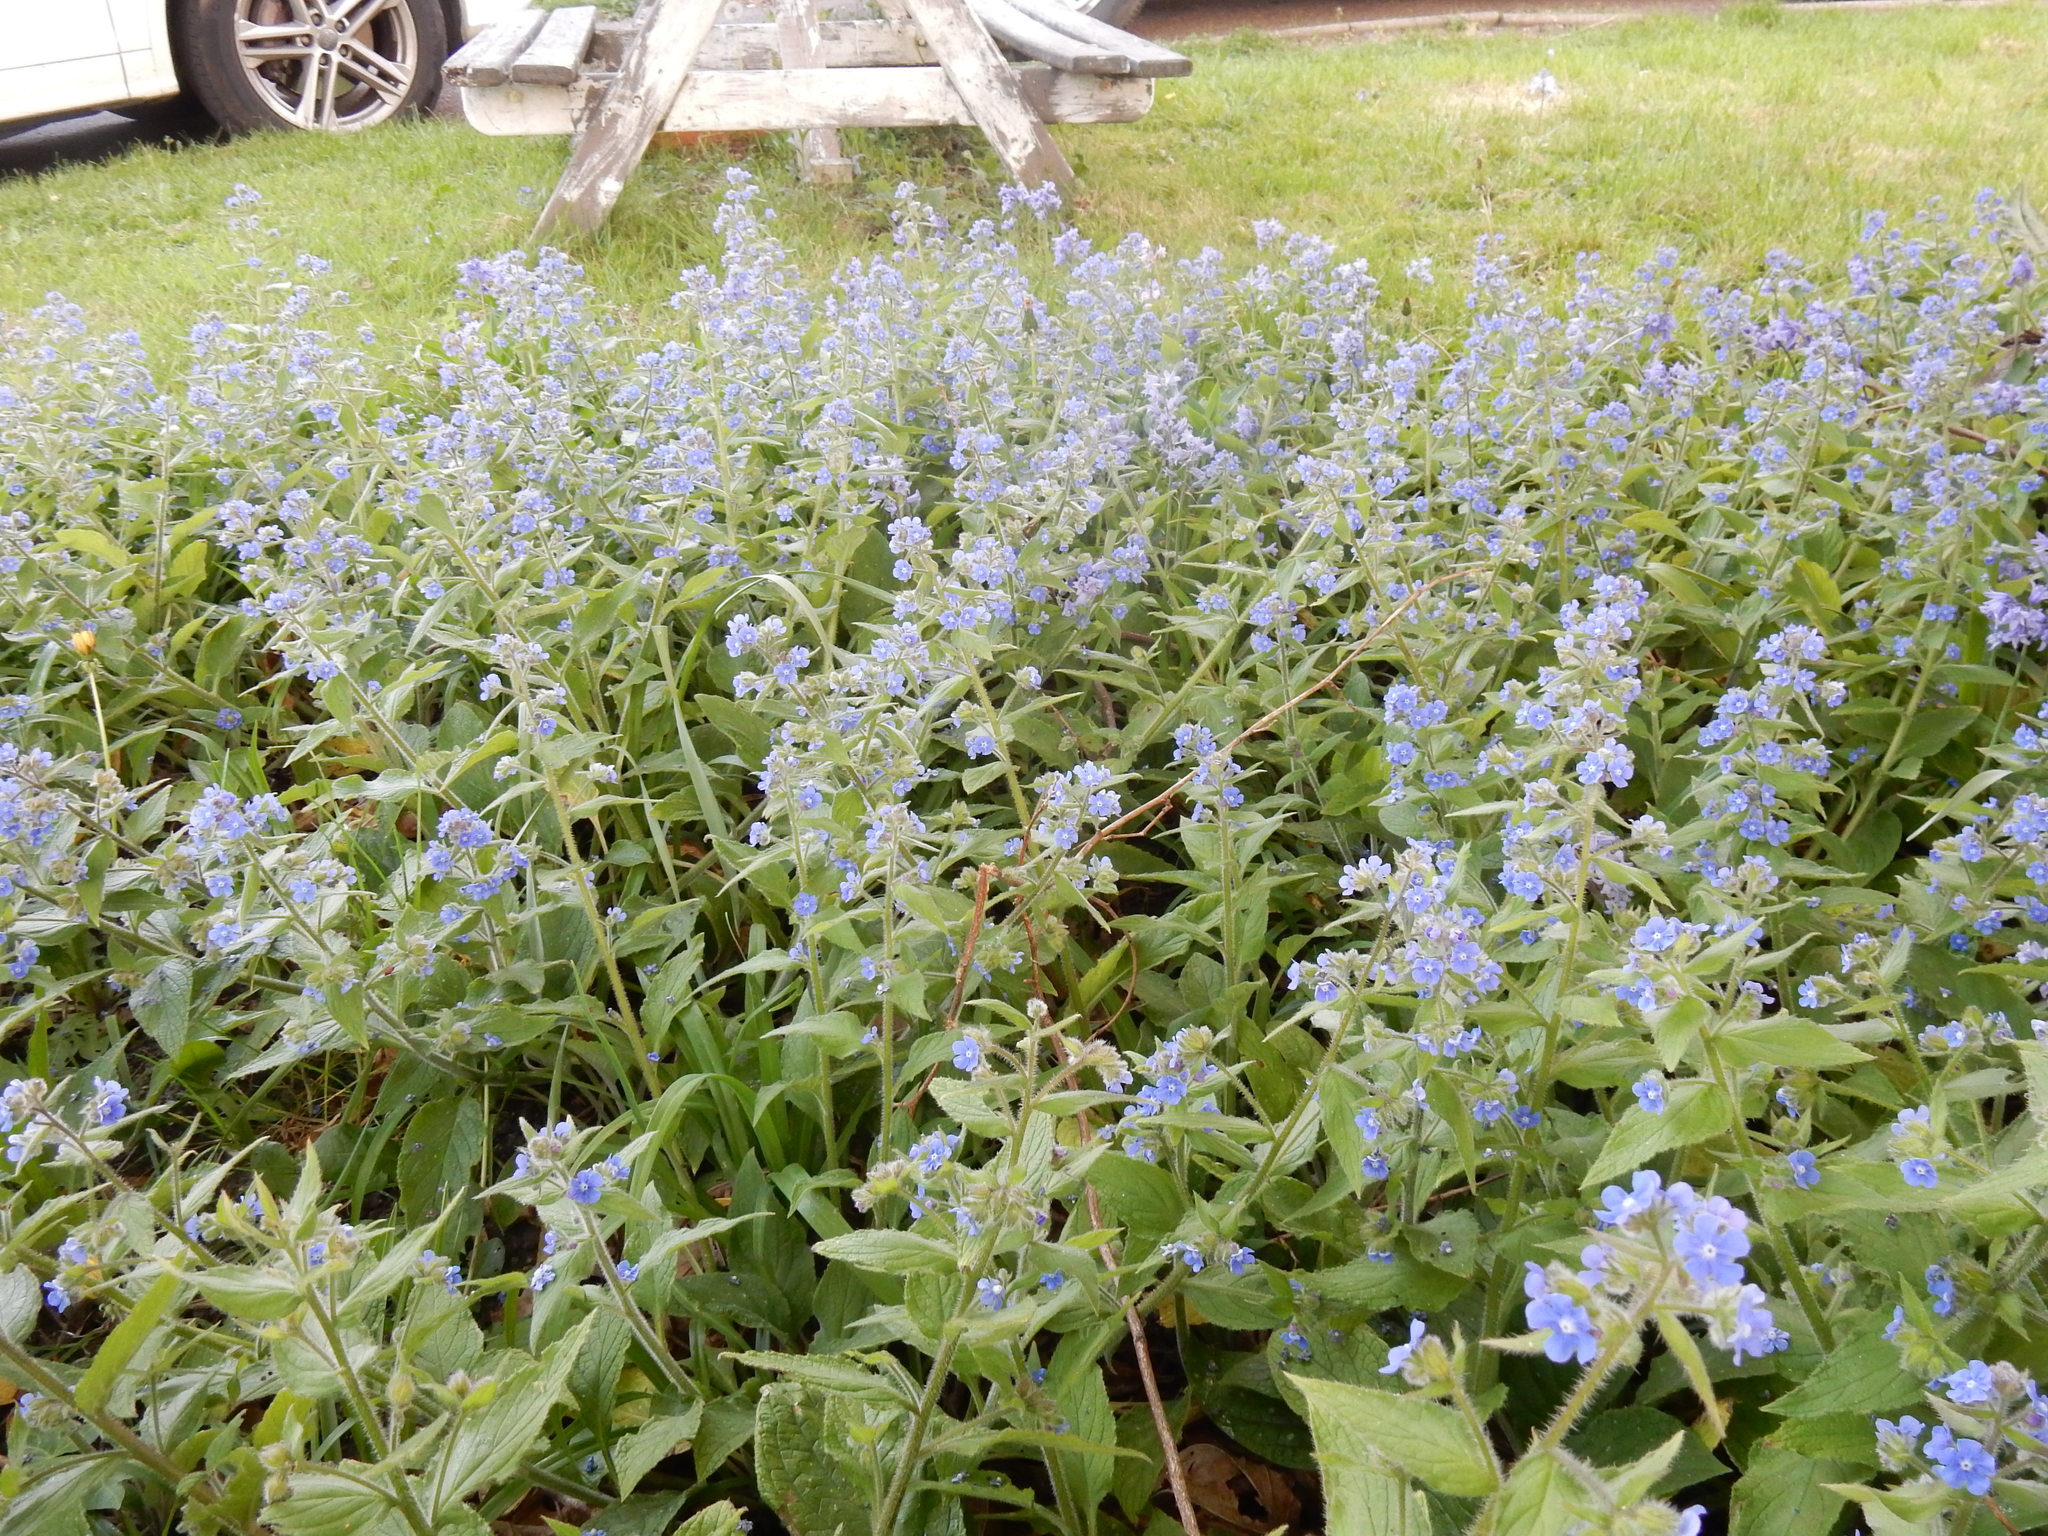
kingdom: Plantae
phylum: Tracheophyta
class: Magnoliopsida
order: Boraginales
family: Boraginaceae
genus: Pentaglottis
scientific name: Pentaglottis sempervirens
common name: Green alkanet
